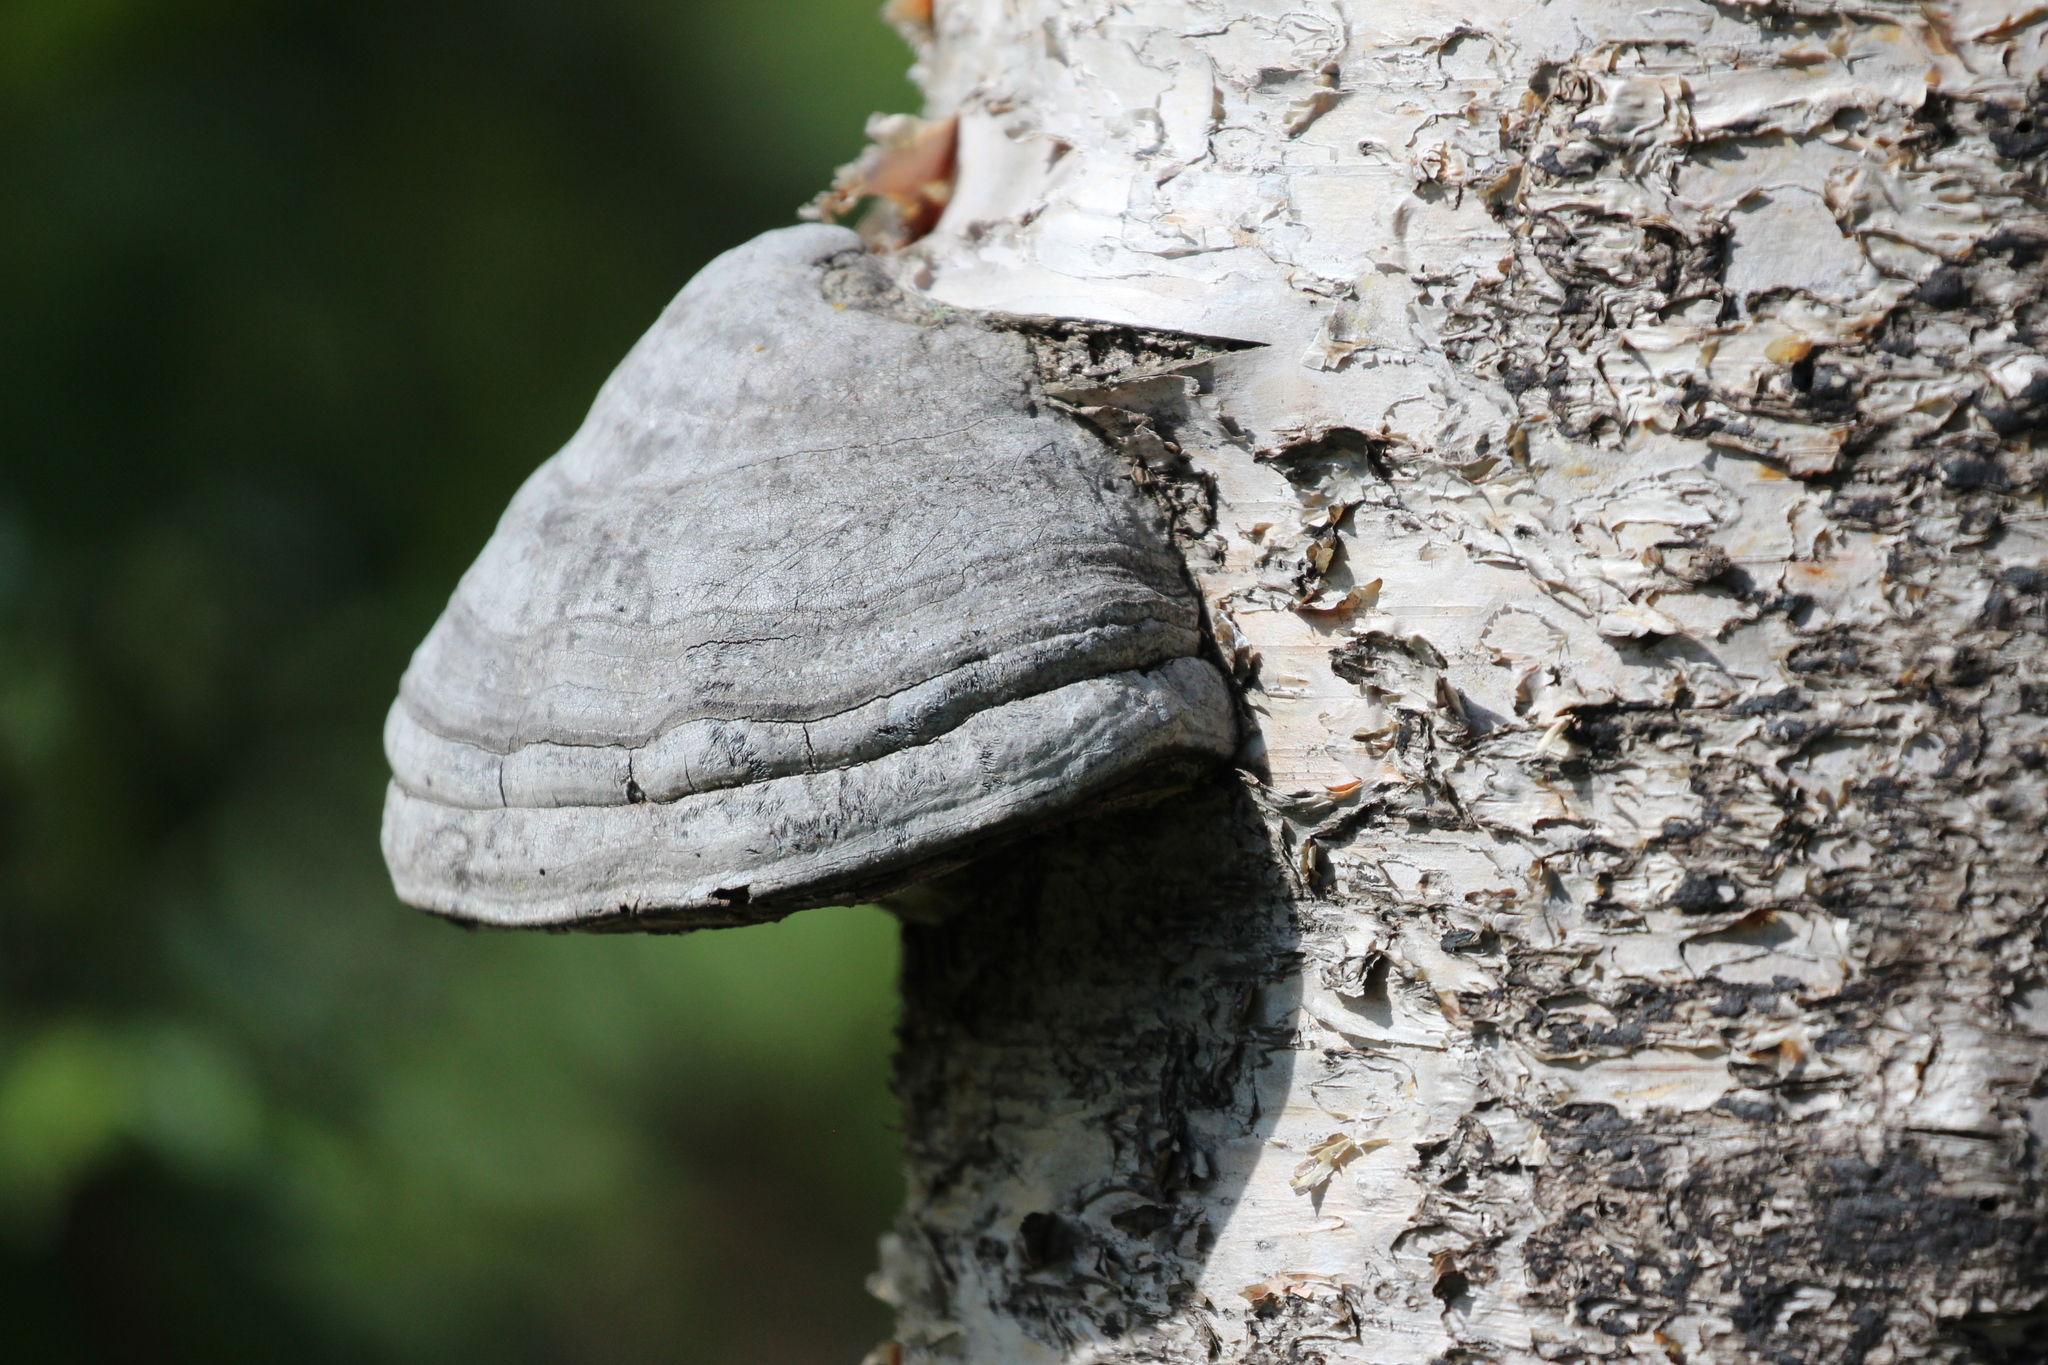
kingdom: Fungi
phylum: Basidiomycota
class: Agaricomycetes
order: Polyporales
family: Polyporaceae
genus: Fomes
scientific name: Fomes fomentarius
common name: Hoof fungus
